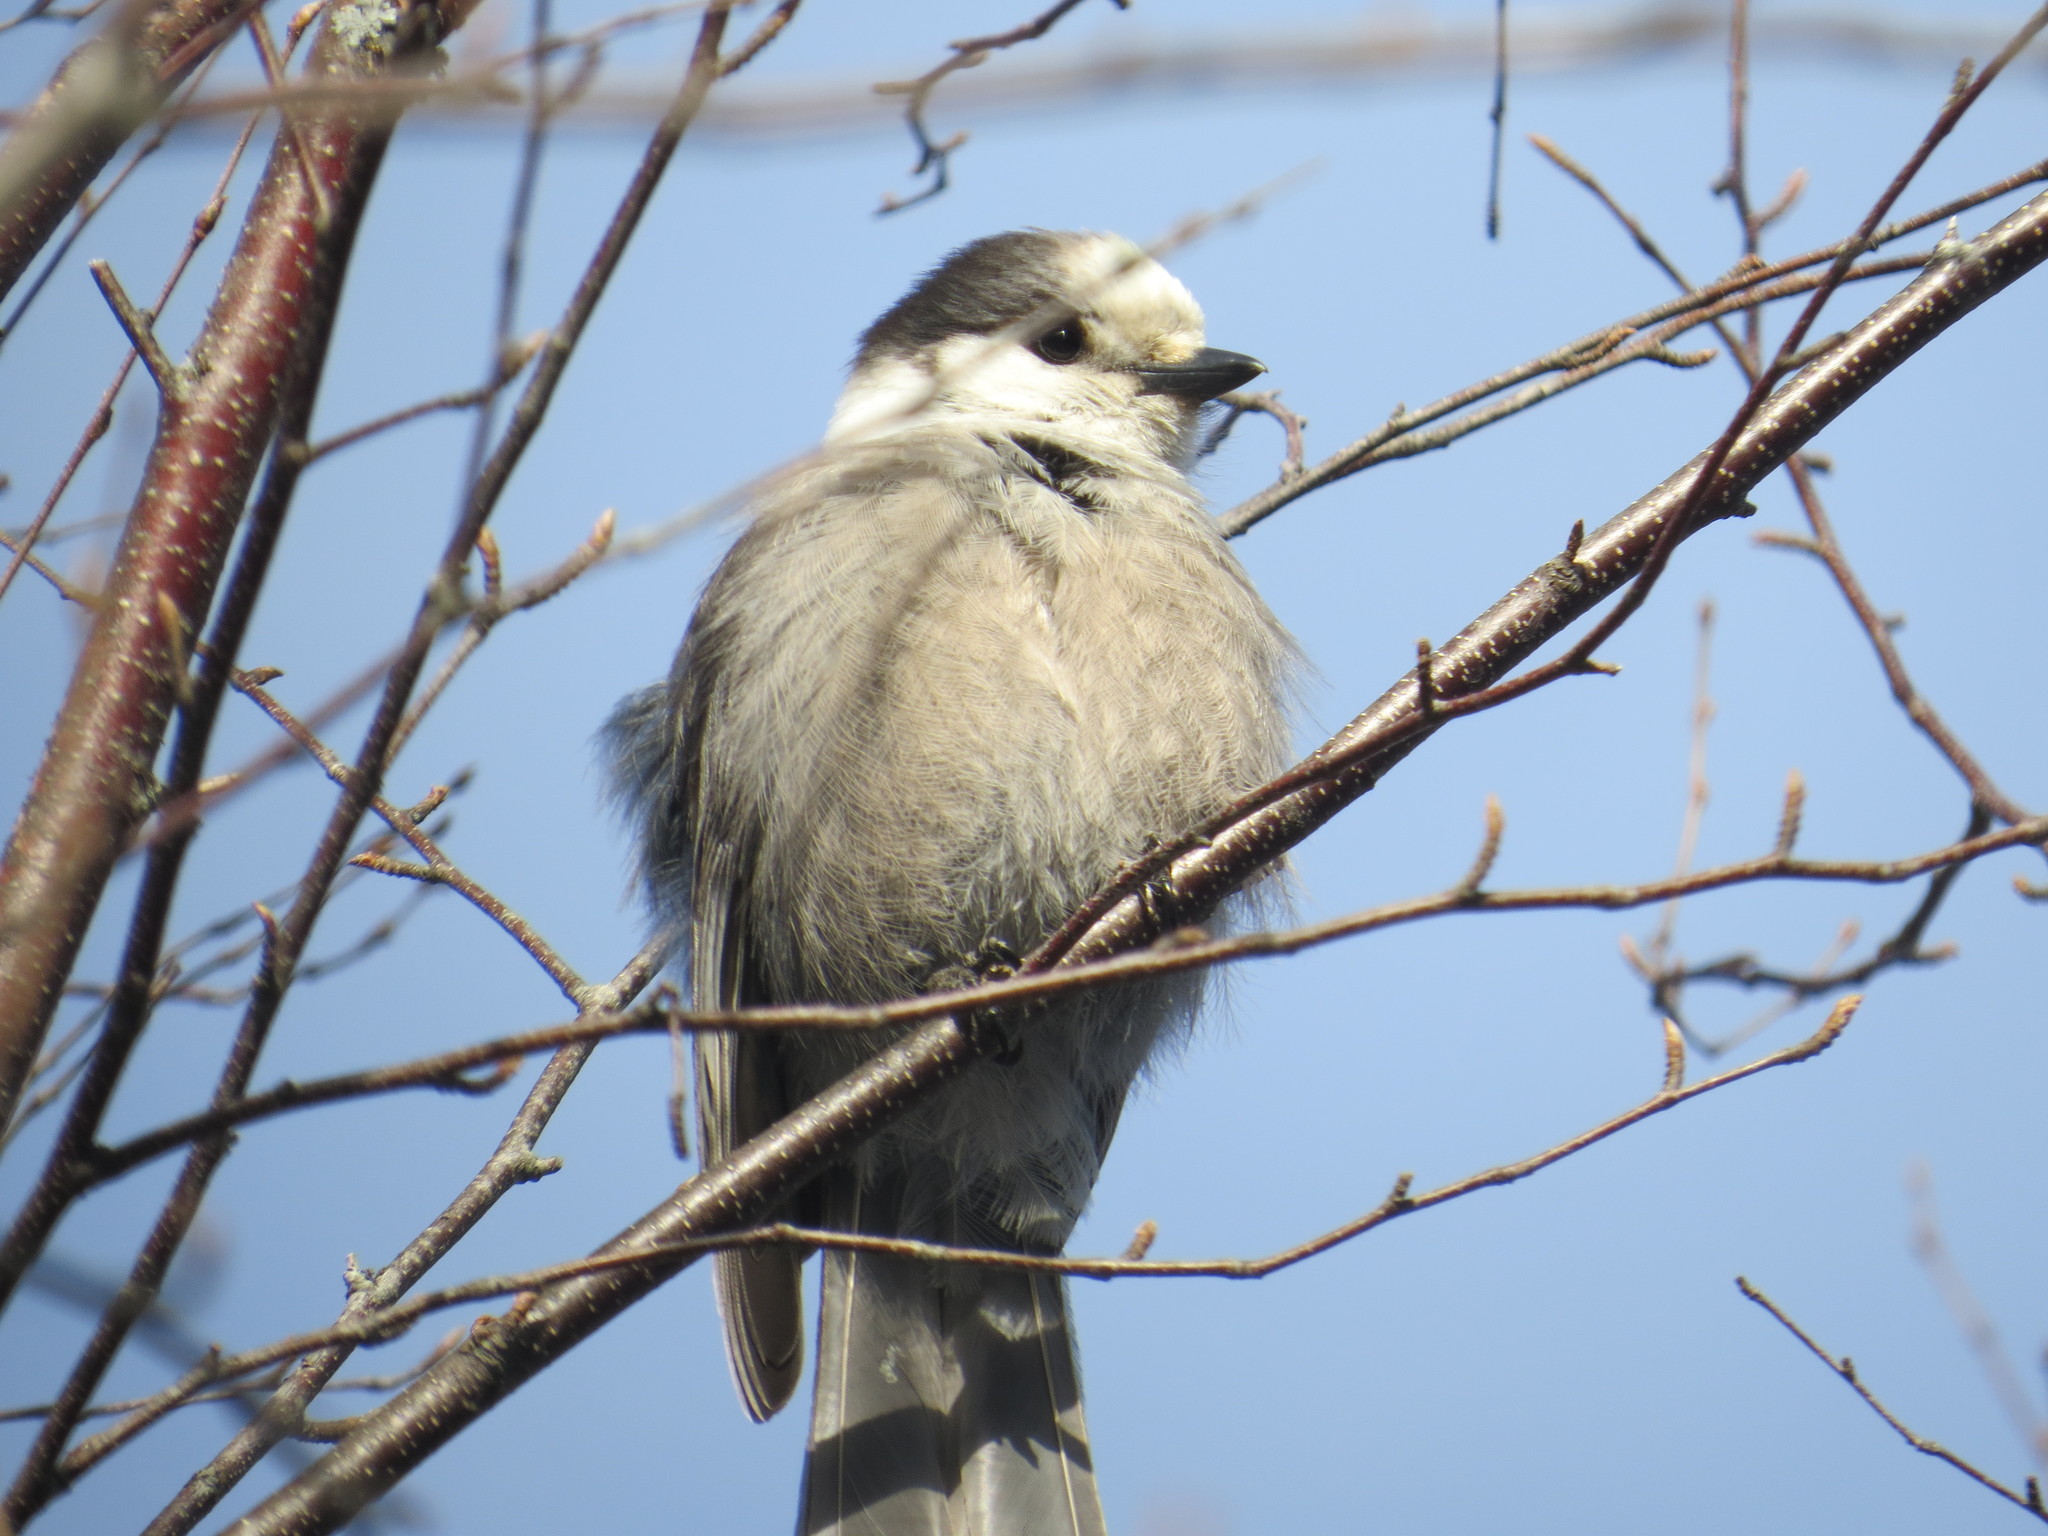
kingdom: Animalia
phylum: Chordata
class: Aves
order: Passeriformes
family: Corvidae
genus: Perisoreus
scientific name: Perisoreus canadensis
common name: Gray jay
